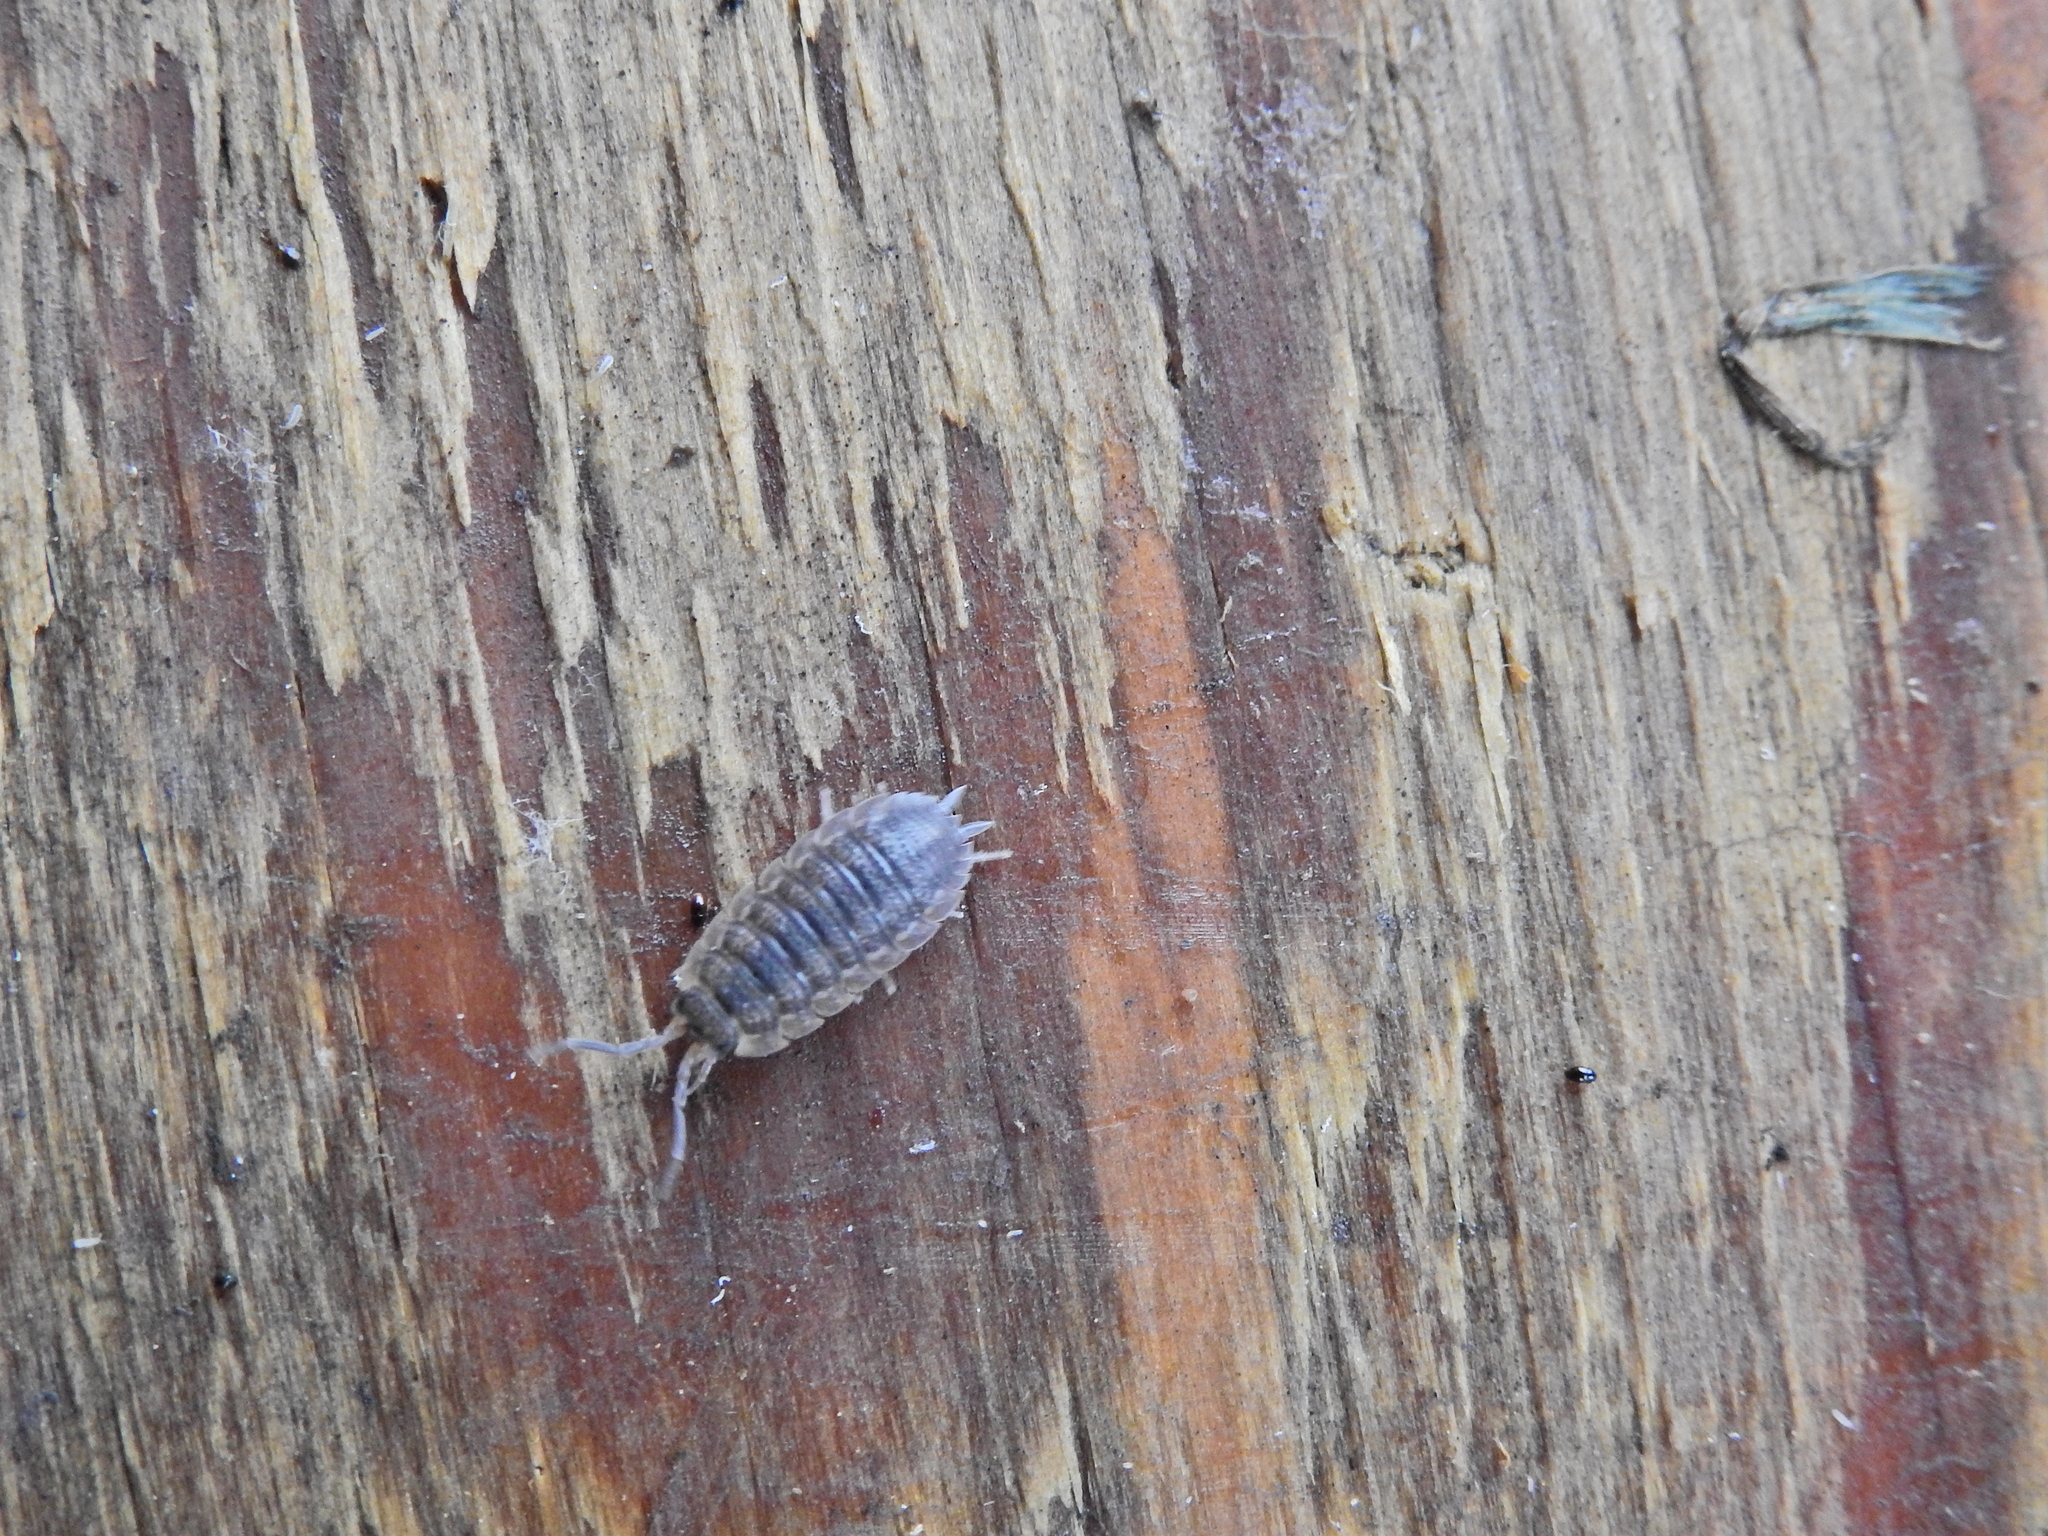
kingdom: Animalia
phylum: Arthropoda
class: Malacostraca
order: Isopoda
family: Porcellionidae
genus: Porcellio
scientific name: Porcellio scaber
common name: Common rough woodlouse
